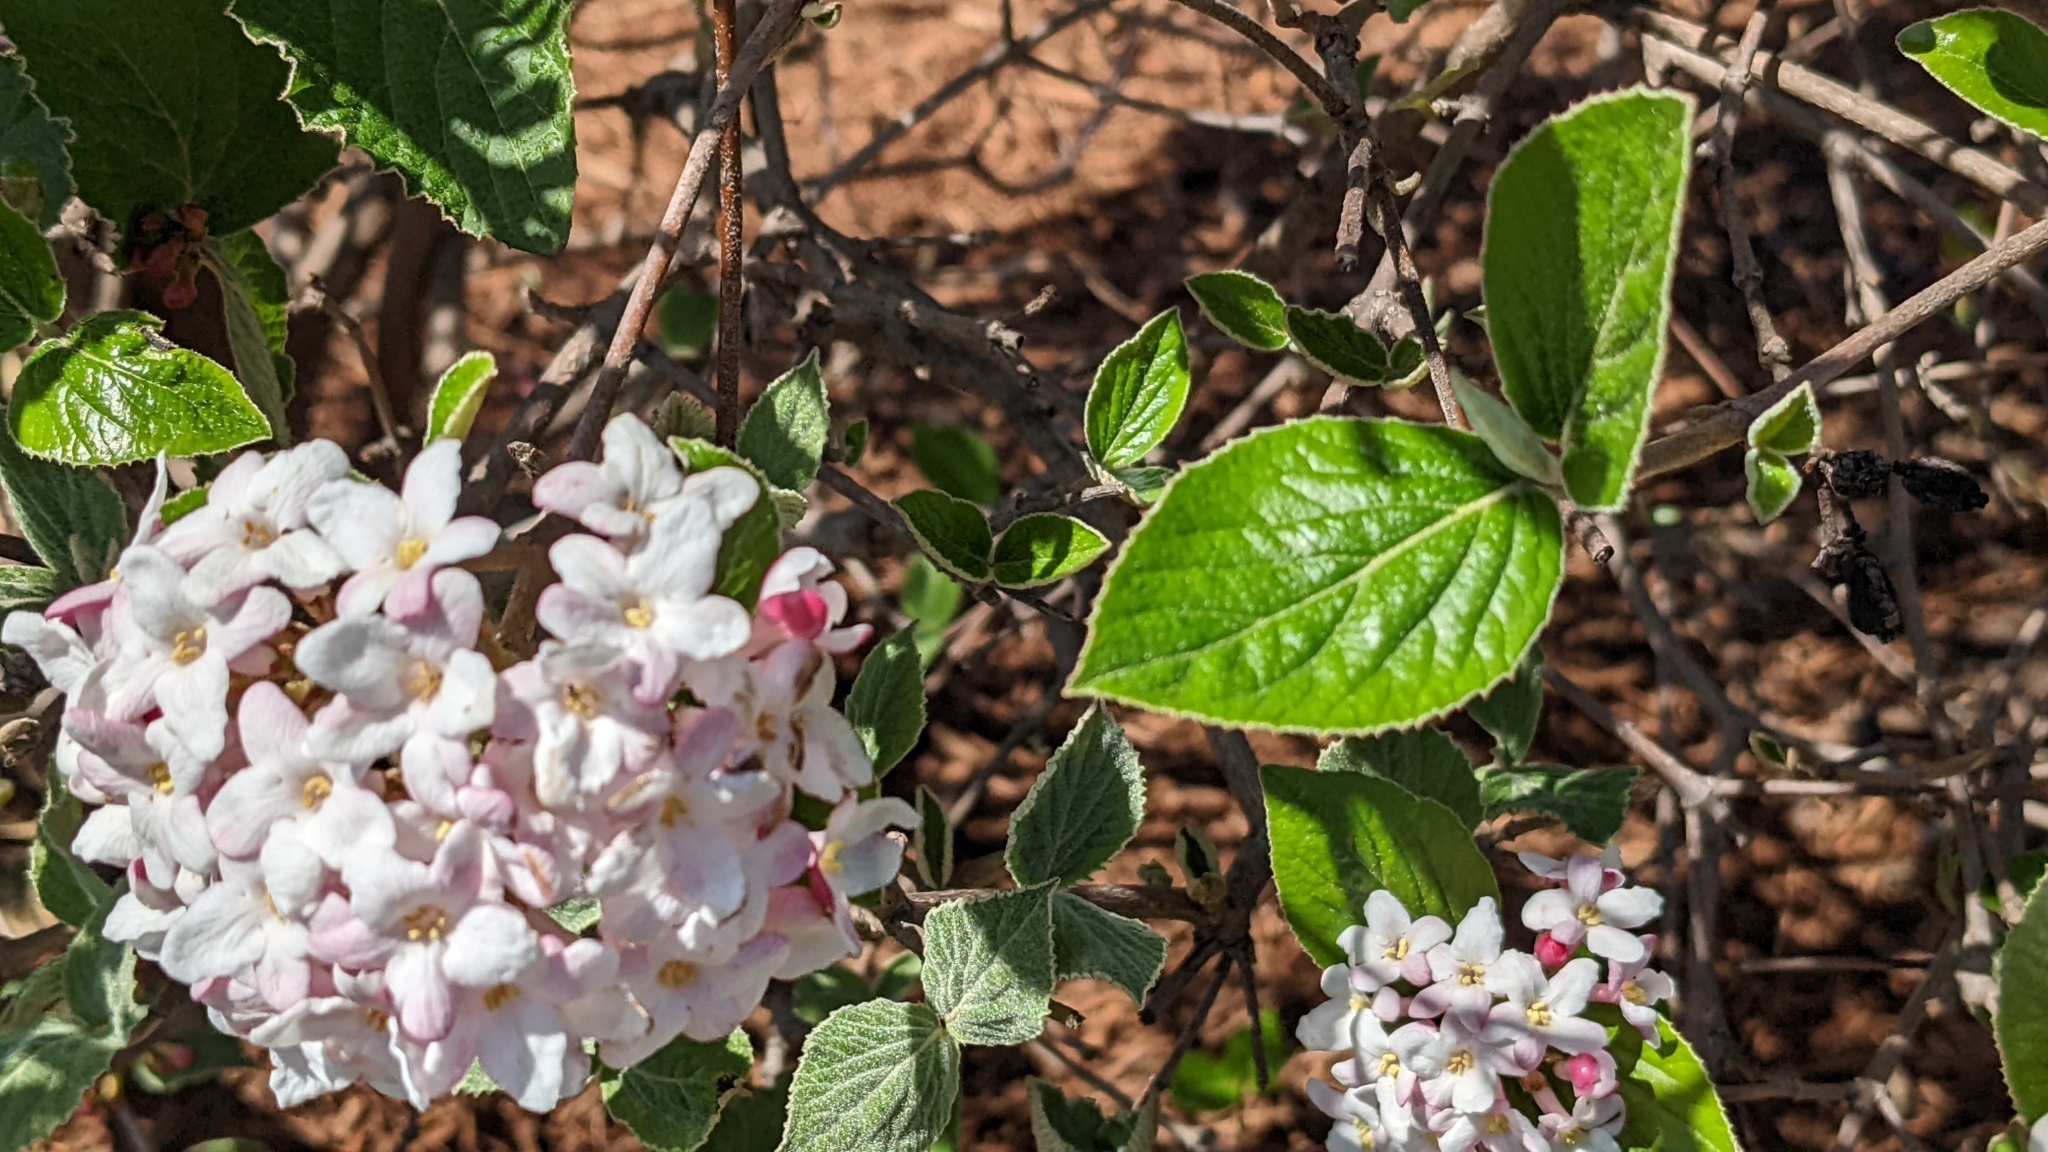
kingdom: Plantae
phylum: Tracheophyta
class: Magnoliopsida
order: Dipsacales
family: Viburnaceae
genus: Viburnum
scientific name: Viburnum carlesii
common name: Koreanspice viburnum
